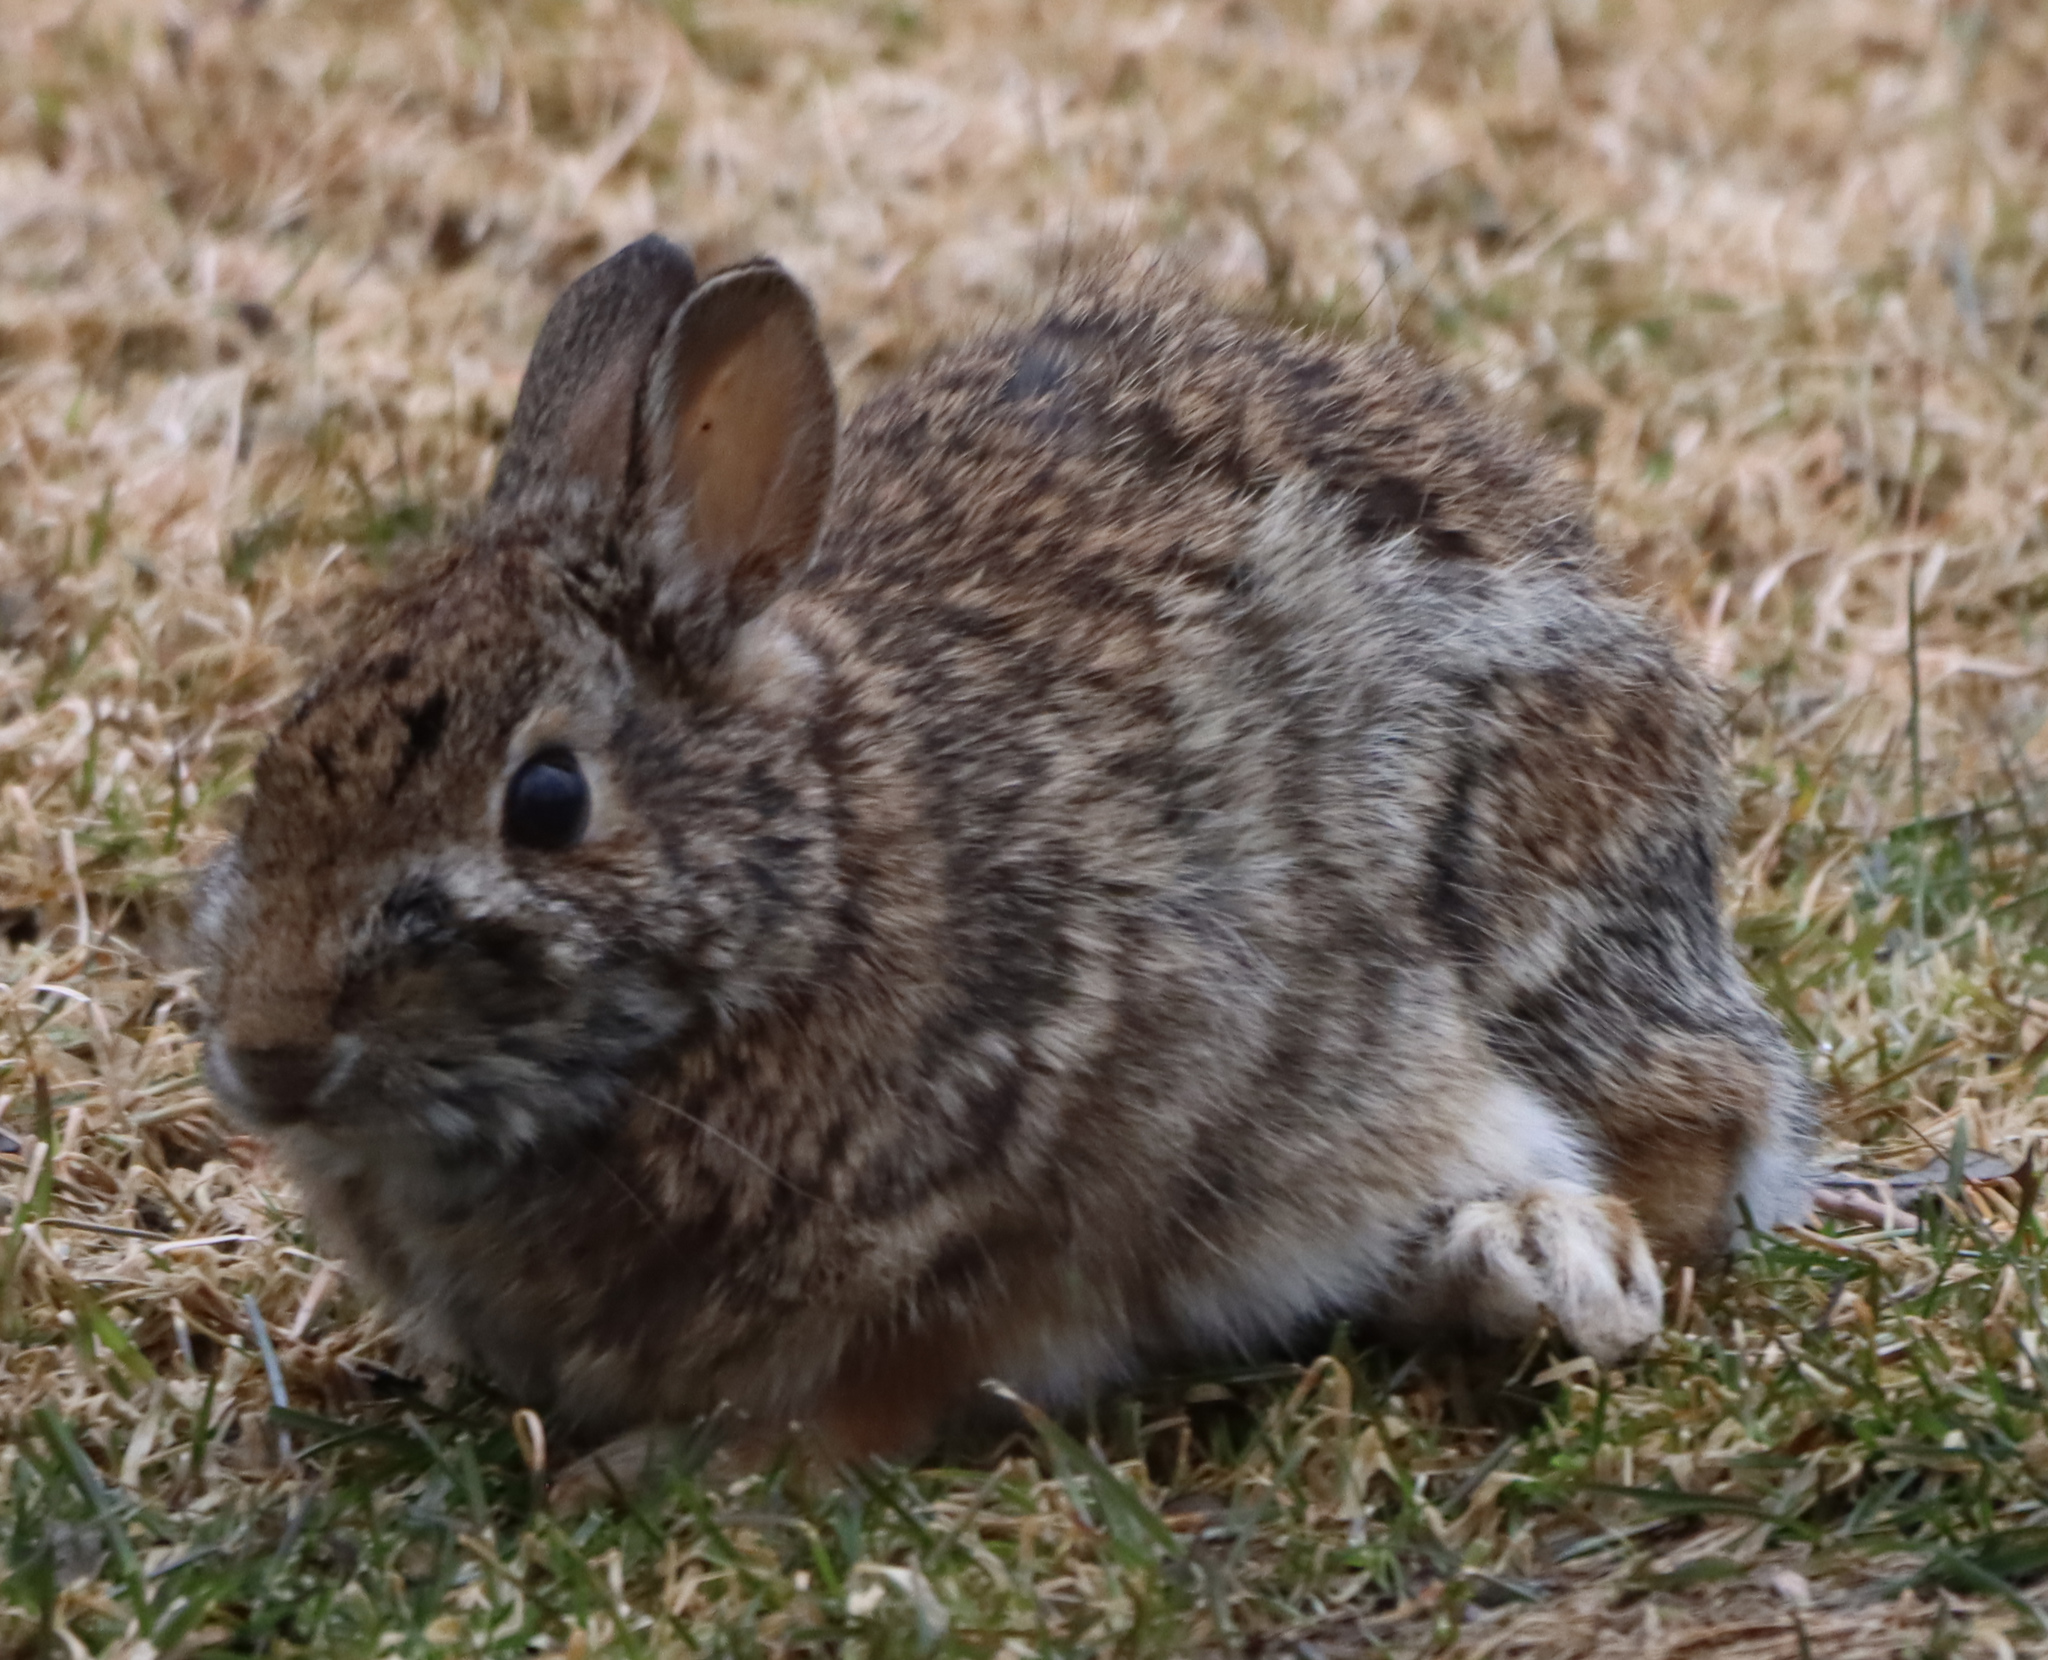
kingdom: Animalia
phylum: Chordata
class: Mammalia
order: Lagomorpha
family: Leporidae
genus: Sylvilagus
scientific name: Sylvilagus floridanus
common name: Eastern cottontail
